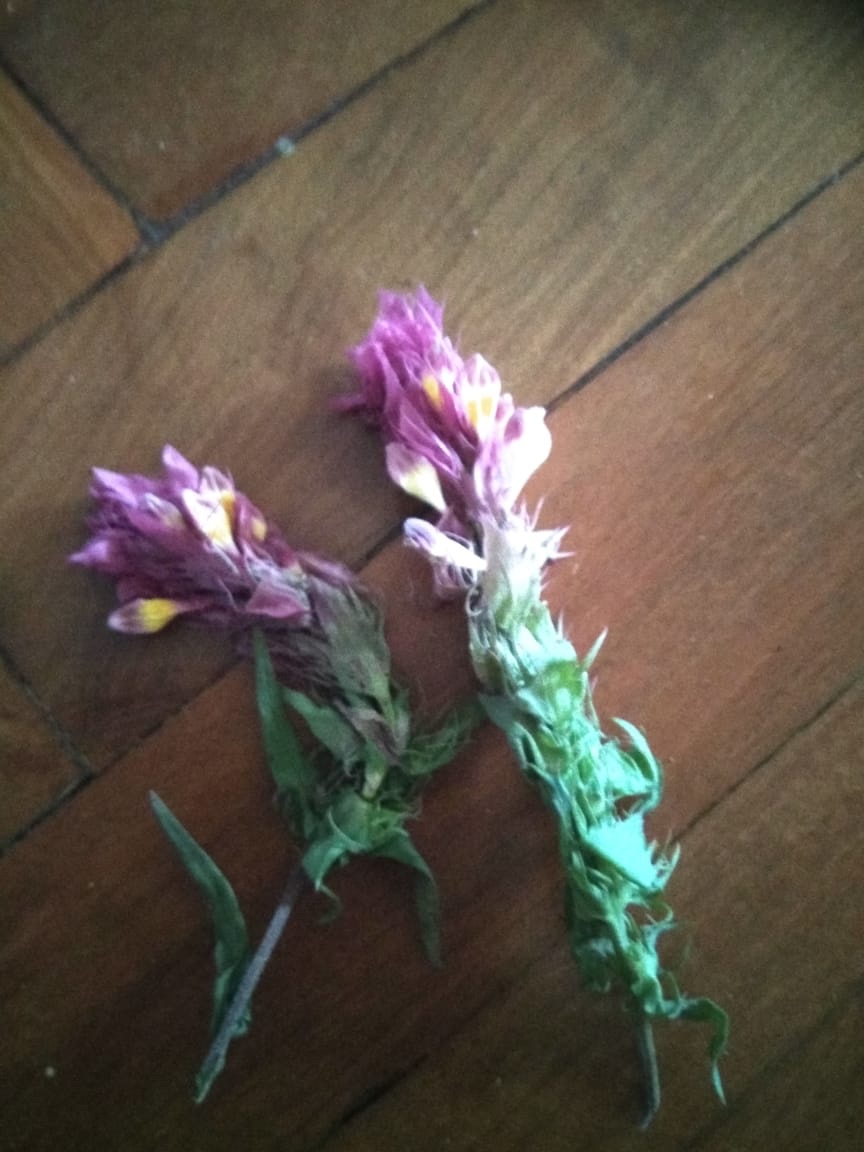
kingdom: Plantae
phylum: Tracheophyta
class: Magnoliopsida
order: Lamiales
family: Orobanchaceae
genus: Melampyrum
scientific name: Melampyrum arvense
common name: Field cow-wheat
